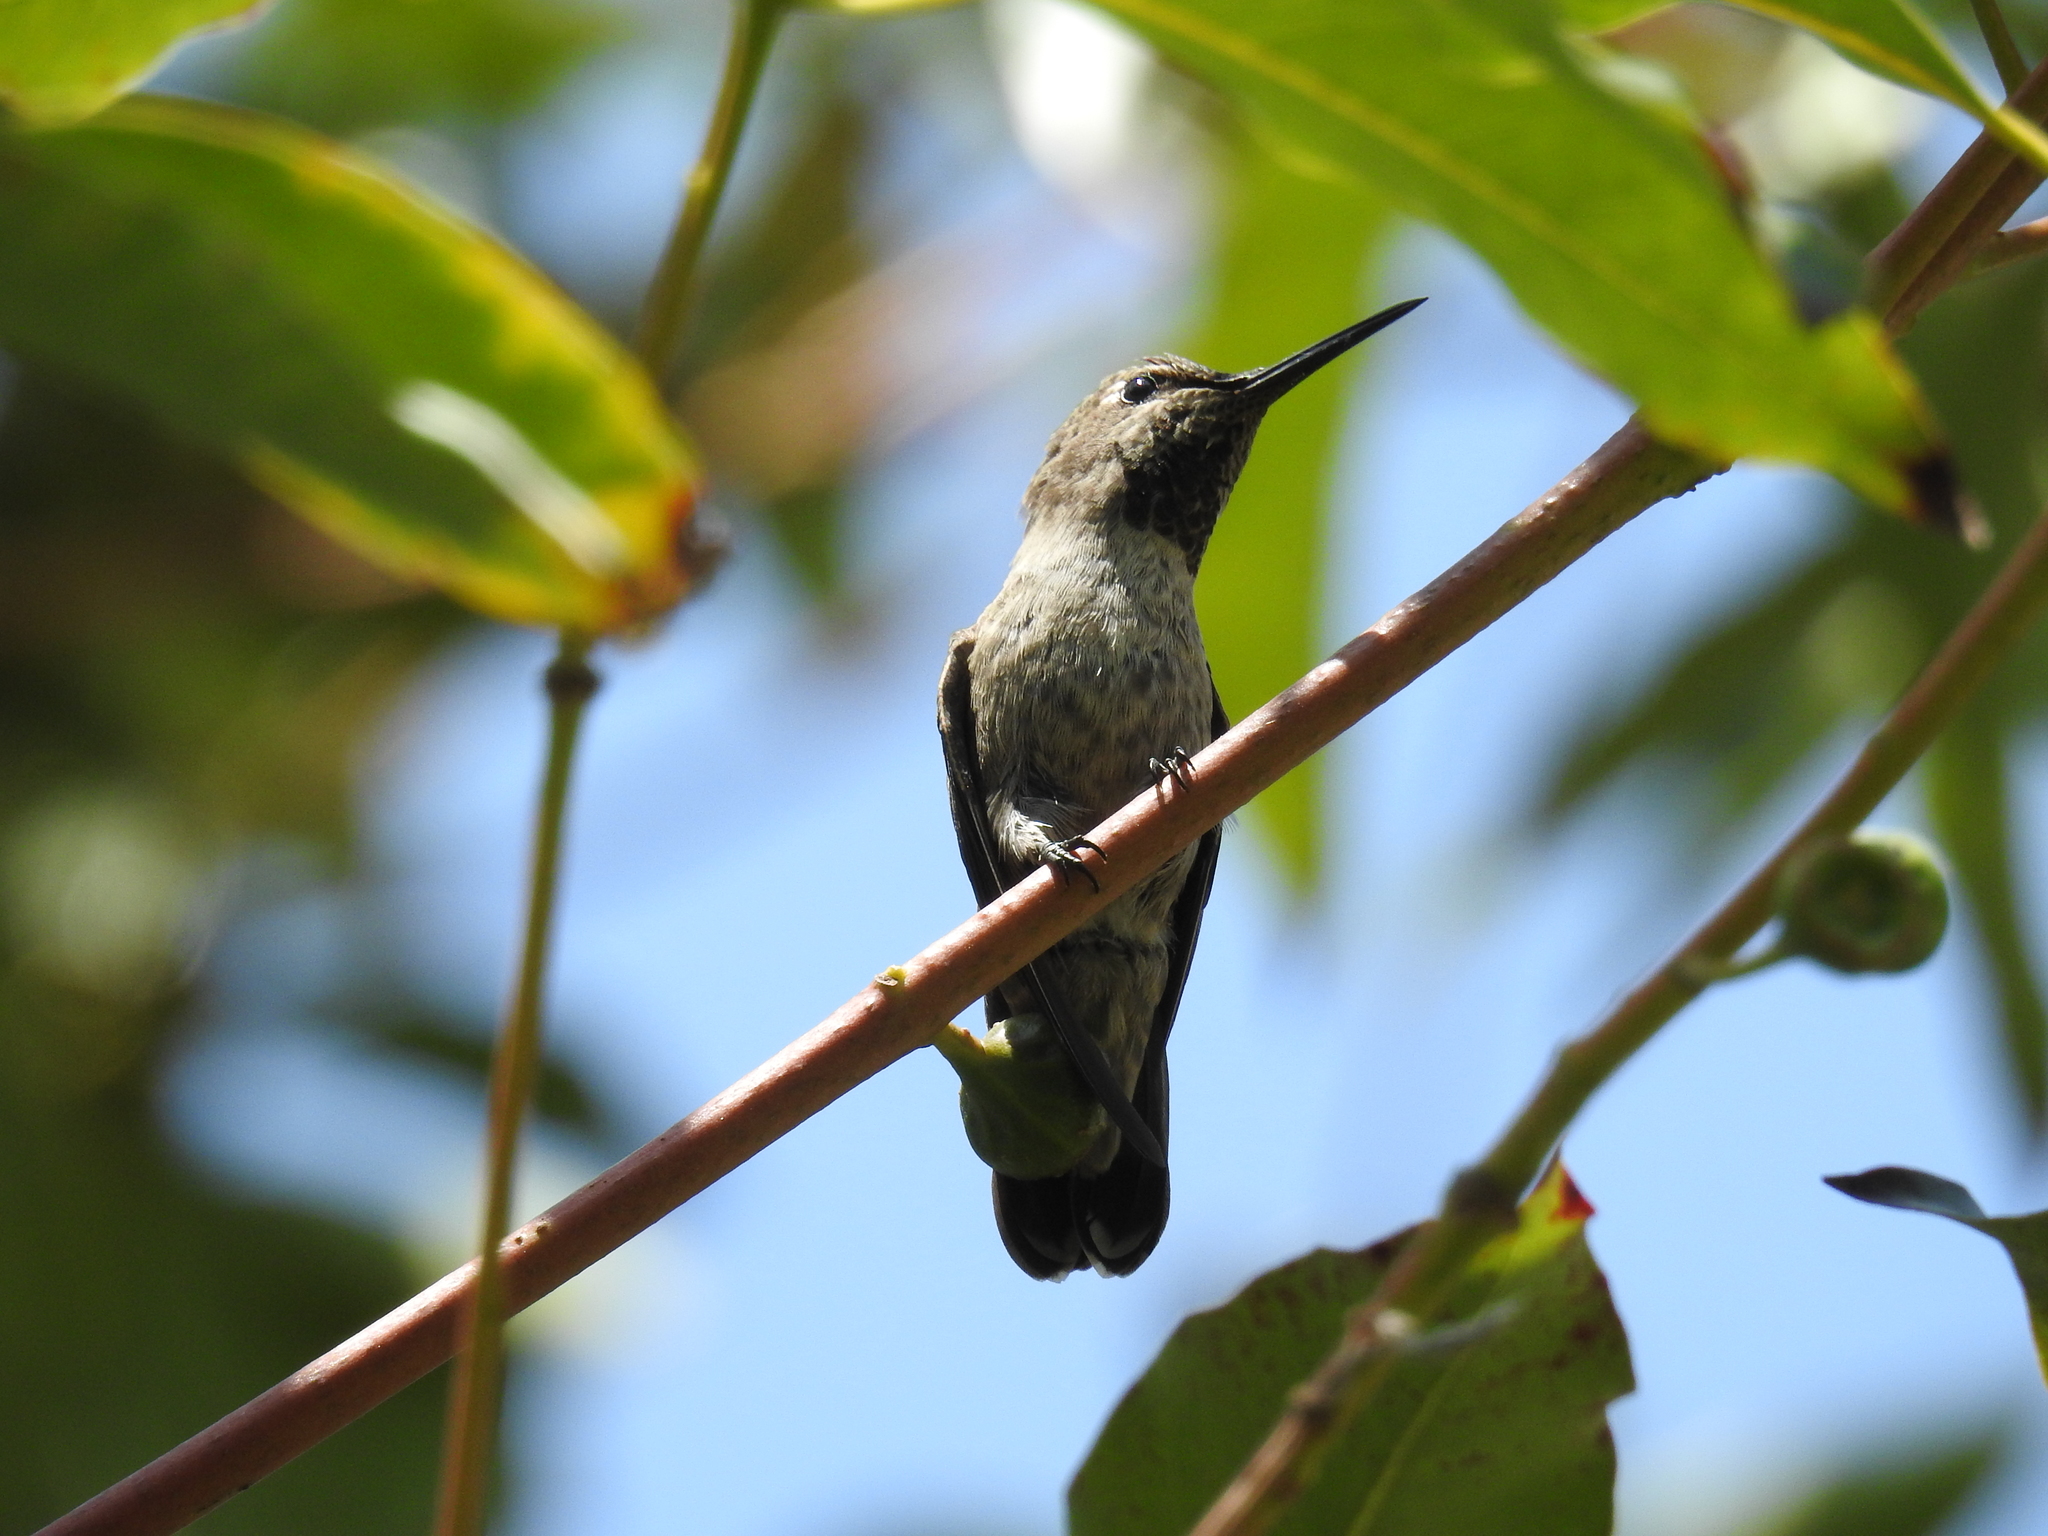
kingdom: Animalia
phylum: Chordata
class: Aves
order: Apodiformes
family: Trochilidae
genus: Calypte
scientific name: Calypte anna
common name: Anna's hummingbird
